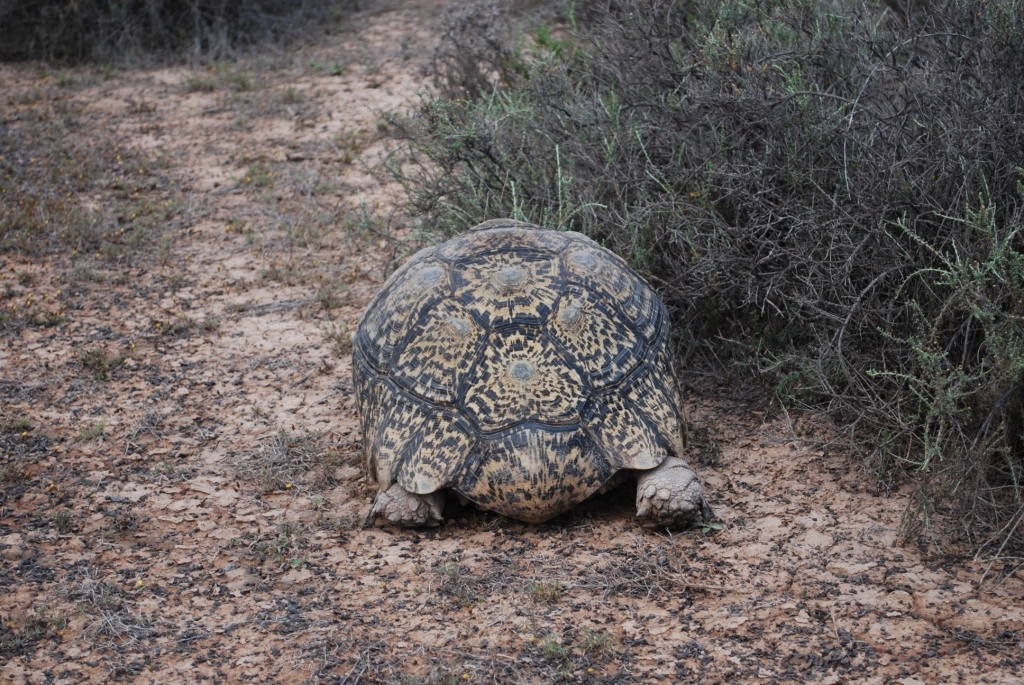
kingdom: Animalia
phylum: Chordata
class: Testudines
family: Testudinidae
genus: Stigmochelys
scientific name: Stigmochelys pardalis
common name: Leopard tortoise
